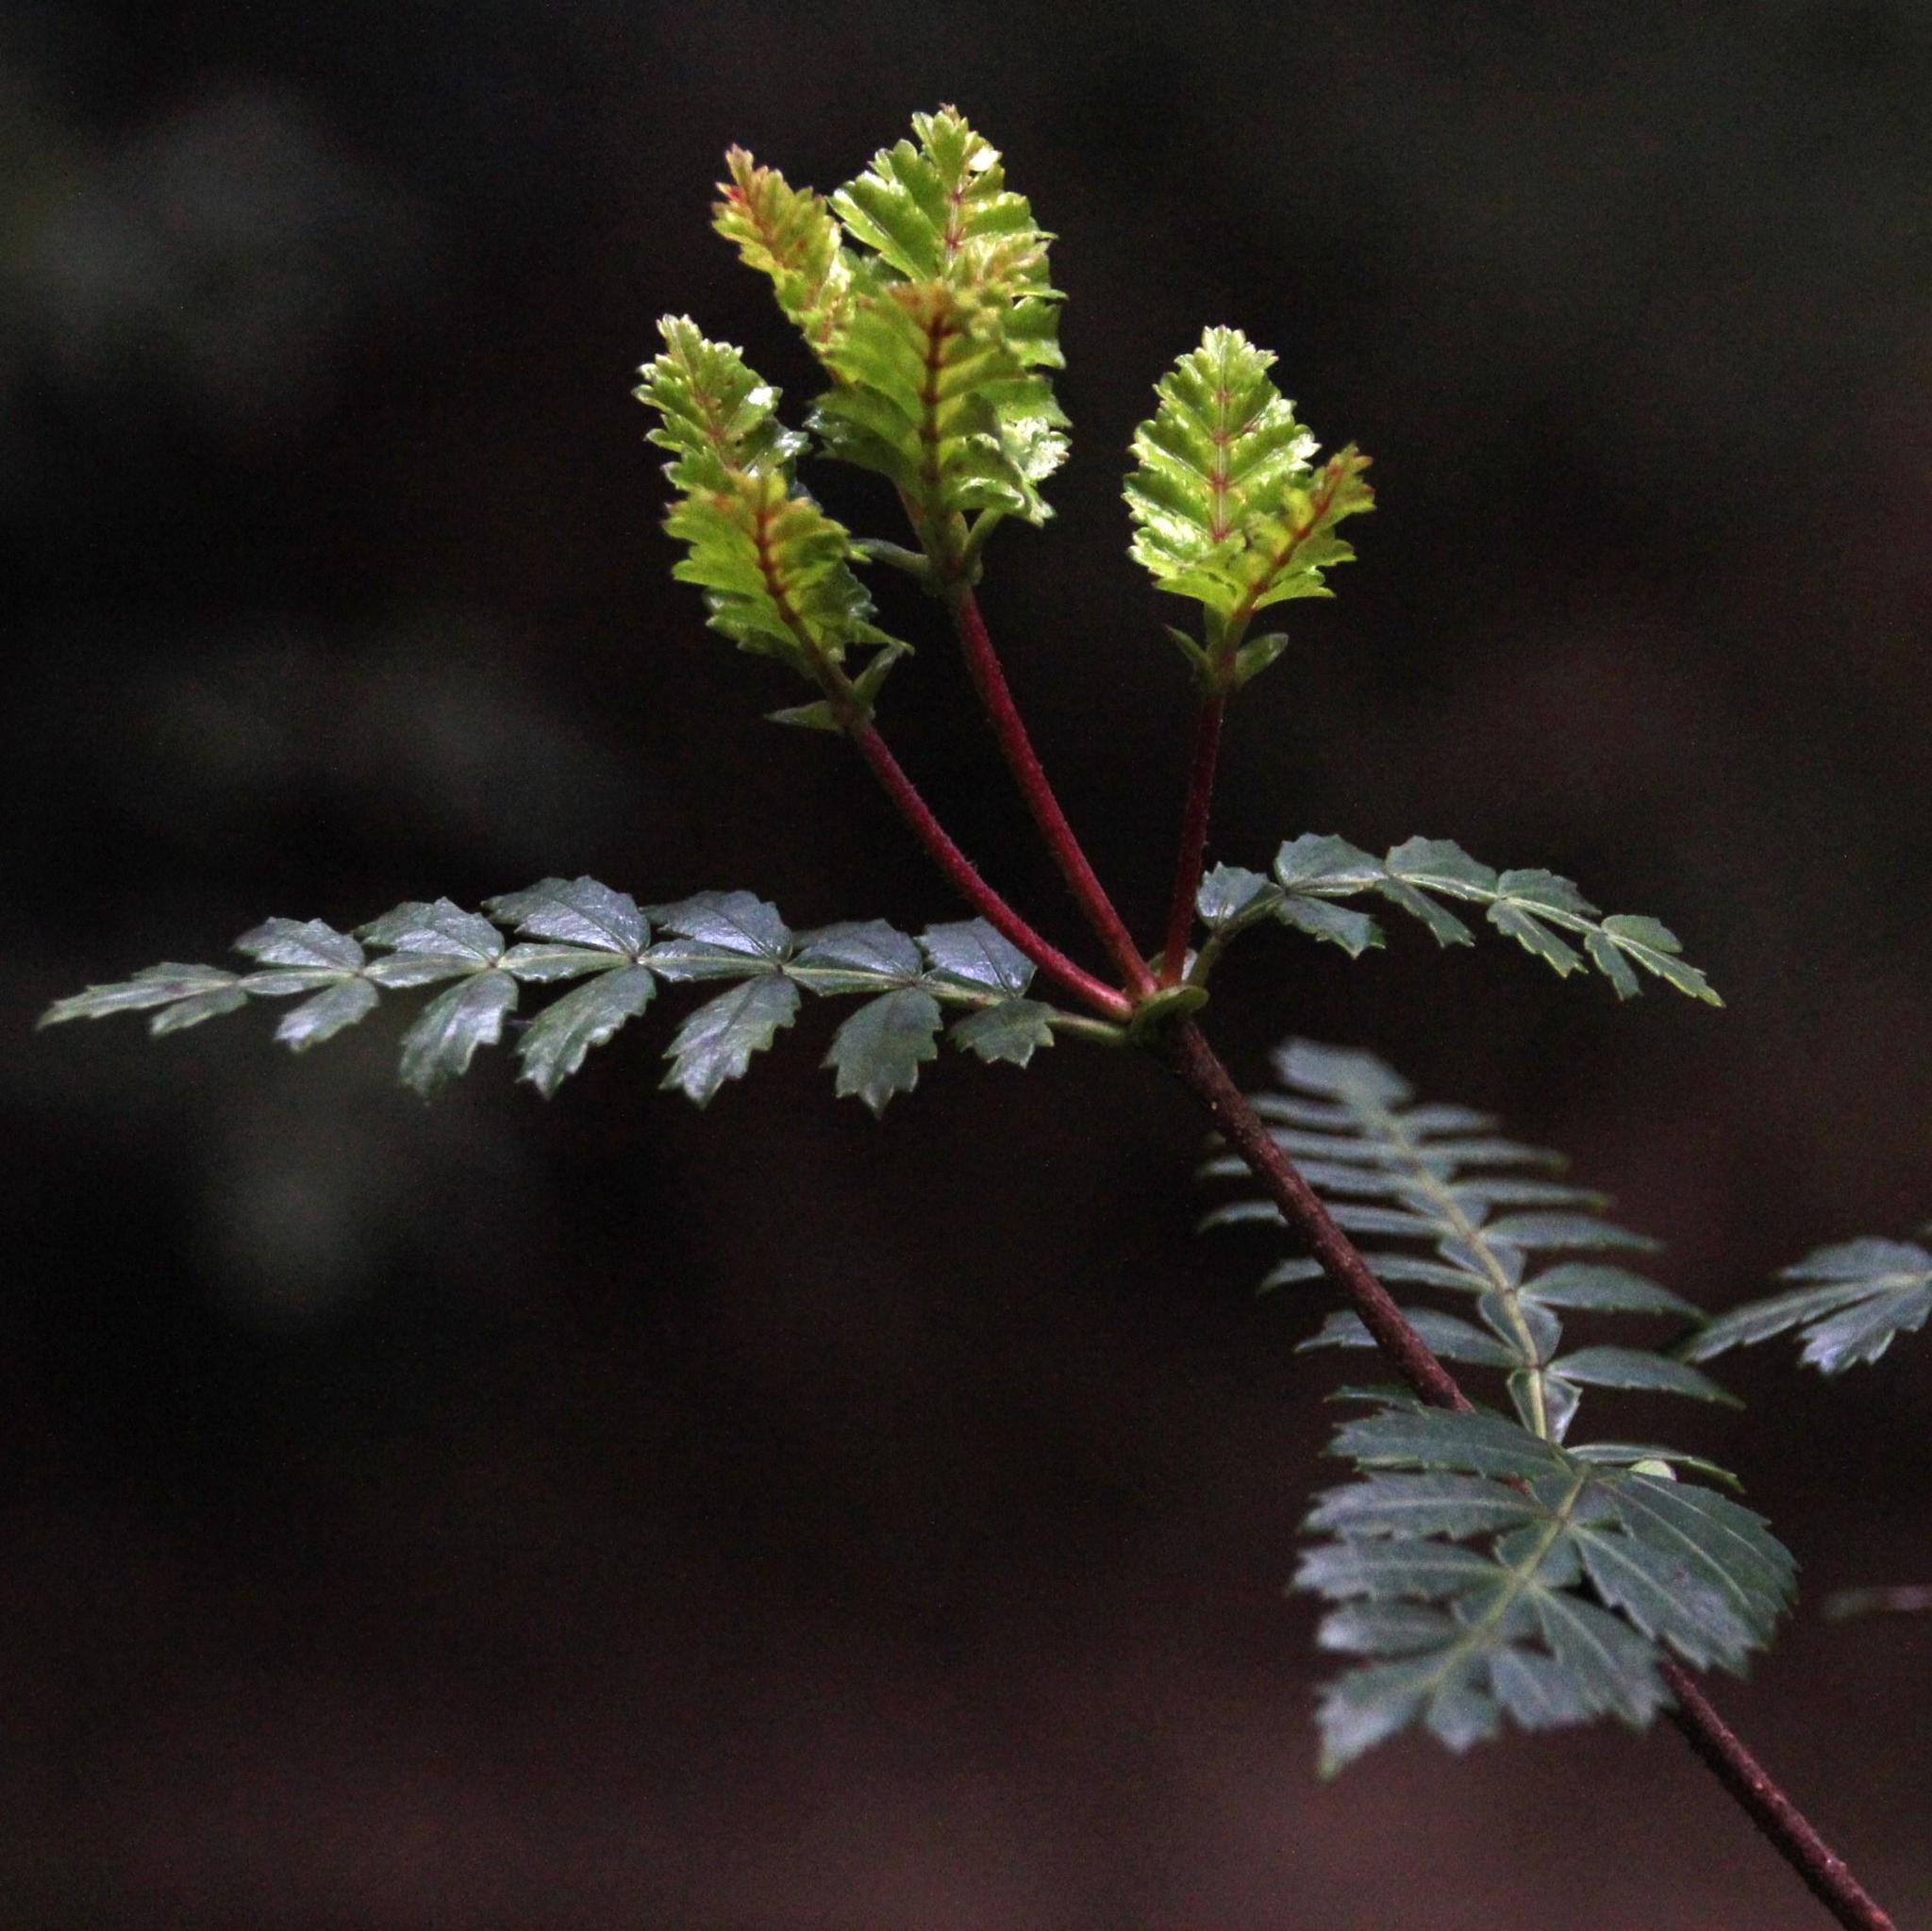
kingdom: Plantae
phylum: Tracheophyta
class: Magnoliopsida
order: Oxalidales
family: Cunoniaceae
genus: Weinmannia
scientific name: Weinmannia trichosperma
